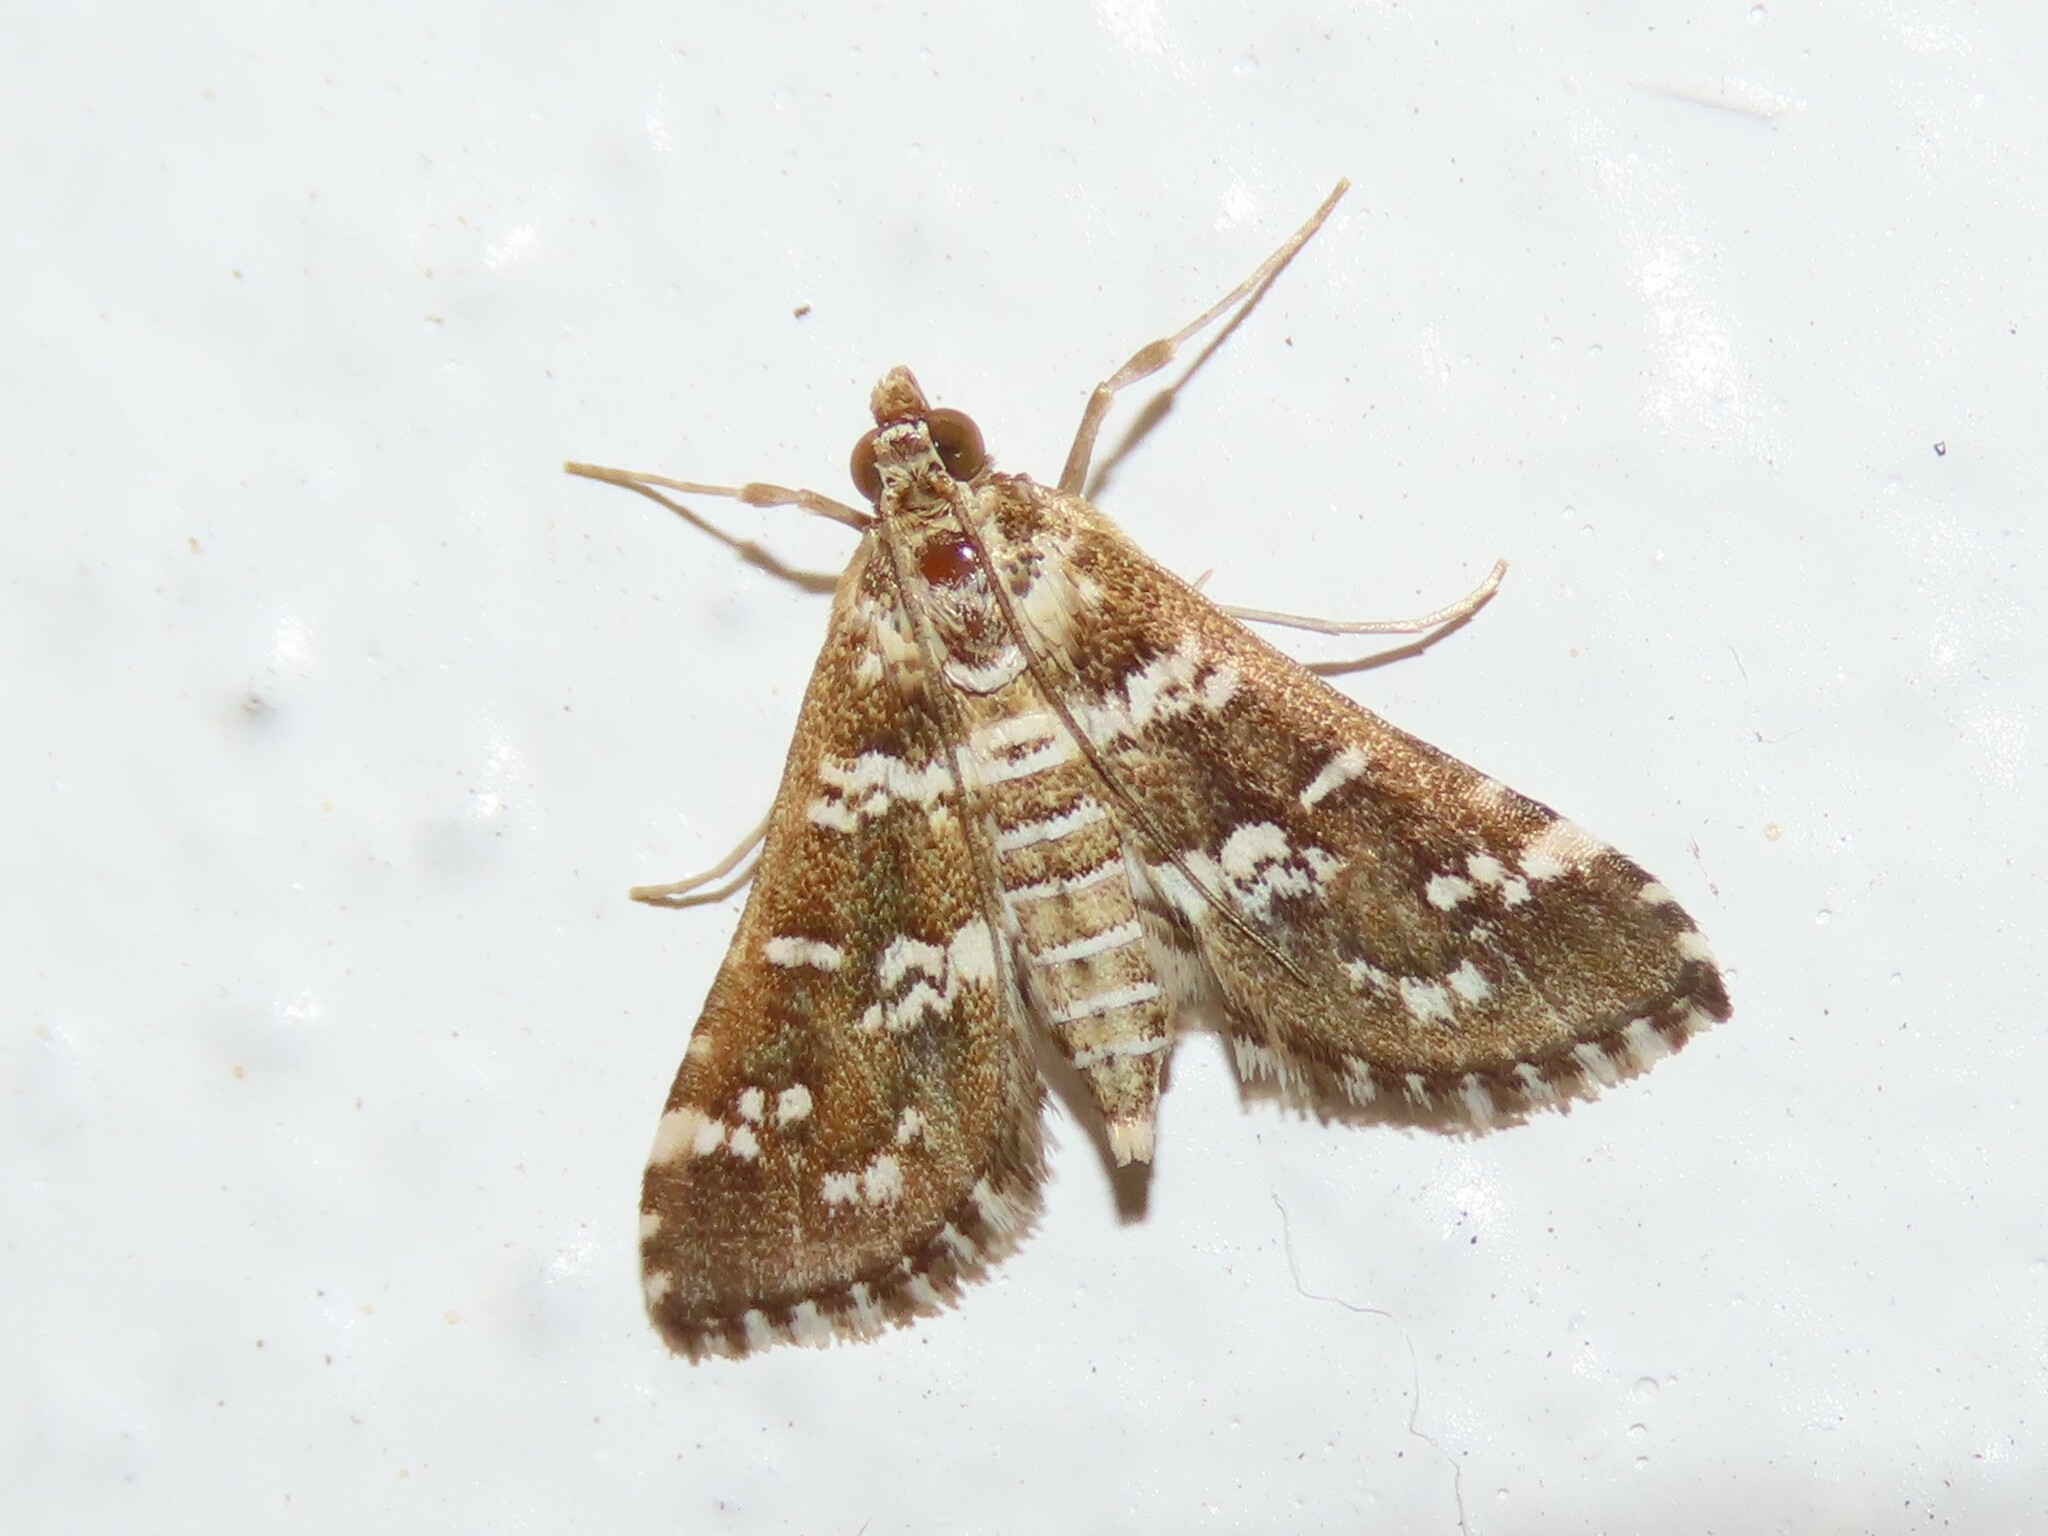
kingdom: Animalia
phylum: Arthropoda
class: Insecta
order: Lepidoptera
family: Crambidae
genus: Samea
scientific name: Samea druchachalis
